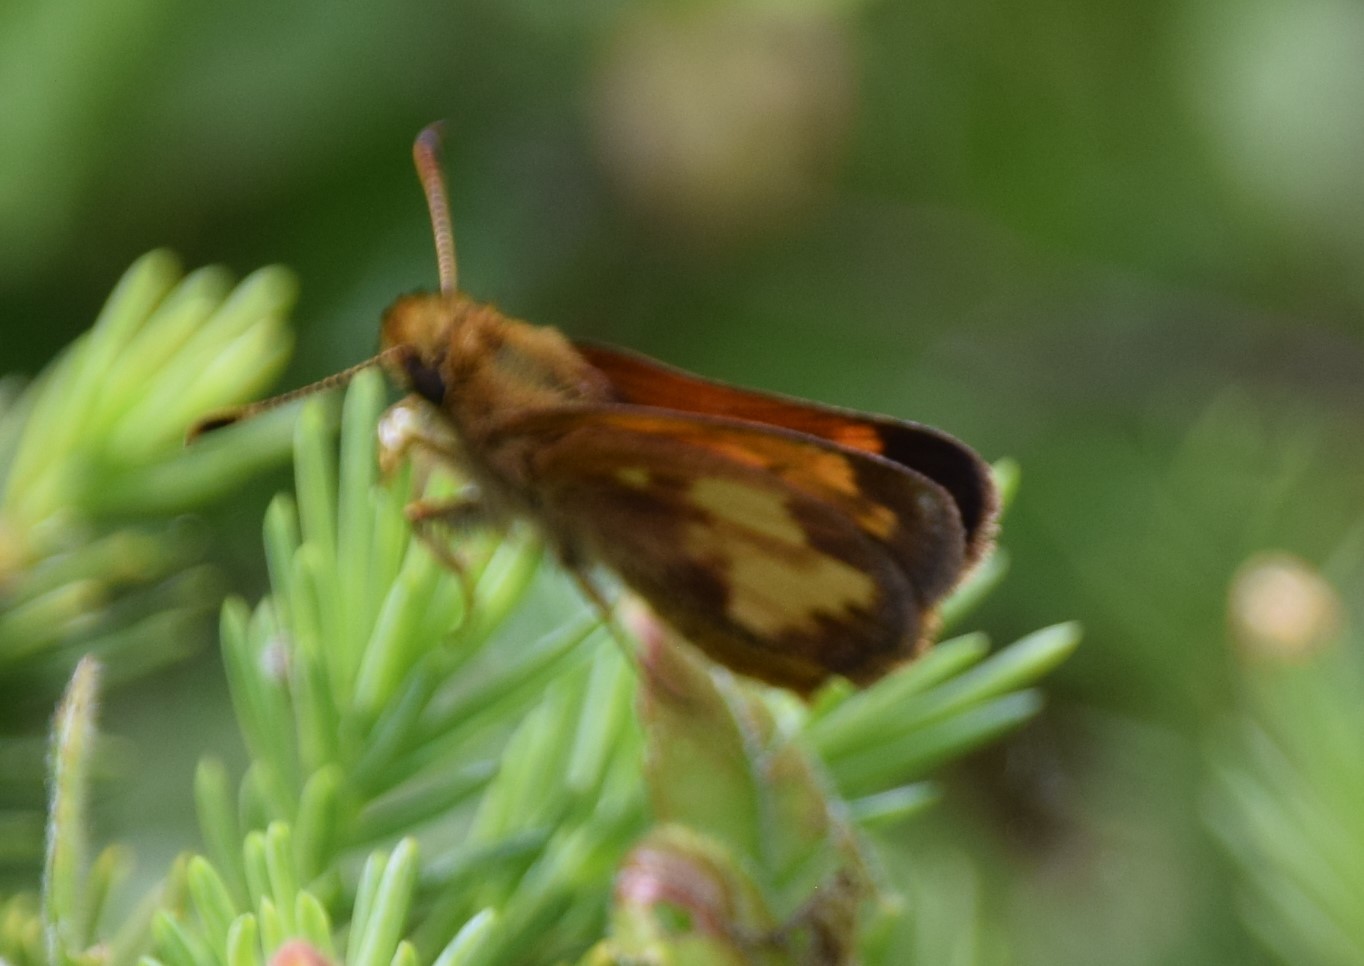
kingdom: Animalia
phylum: Arthropoda
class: Insecta
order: Lepidoptera
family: Hesperiidae
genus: Lon
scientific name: Lon hobomok
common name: Hobomok skipper
